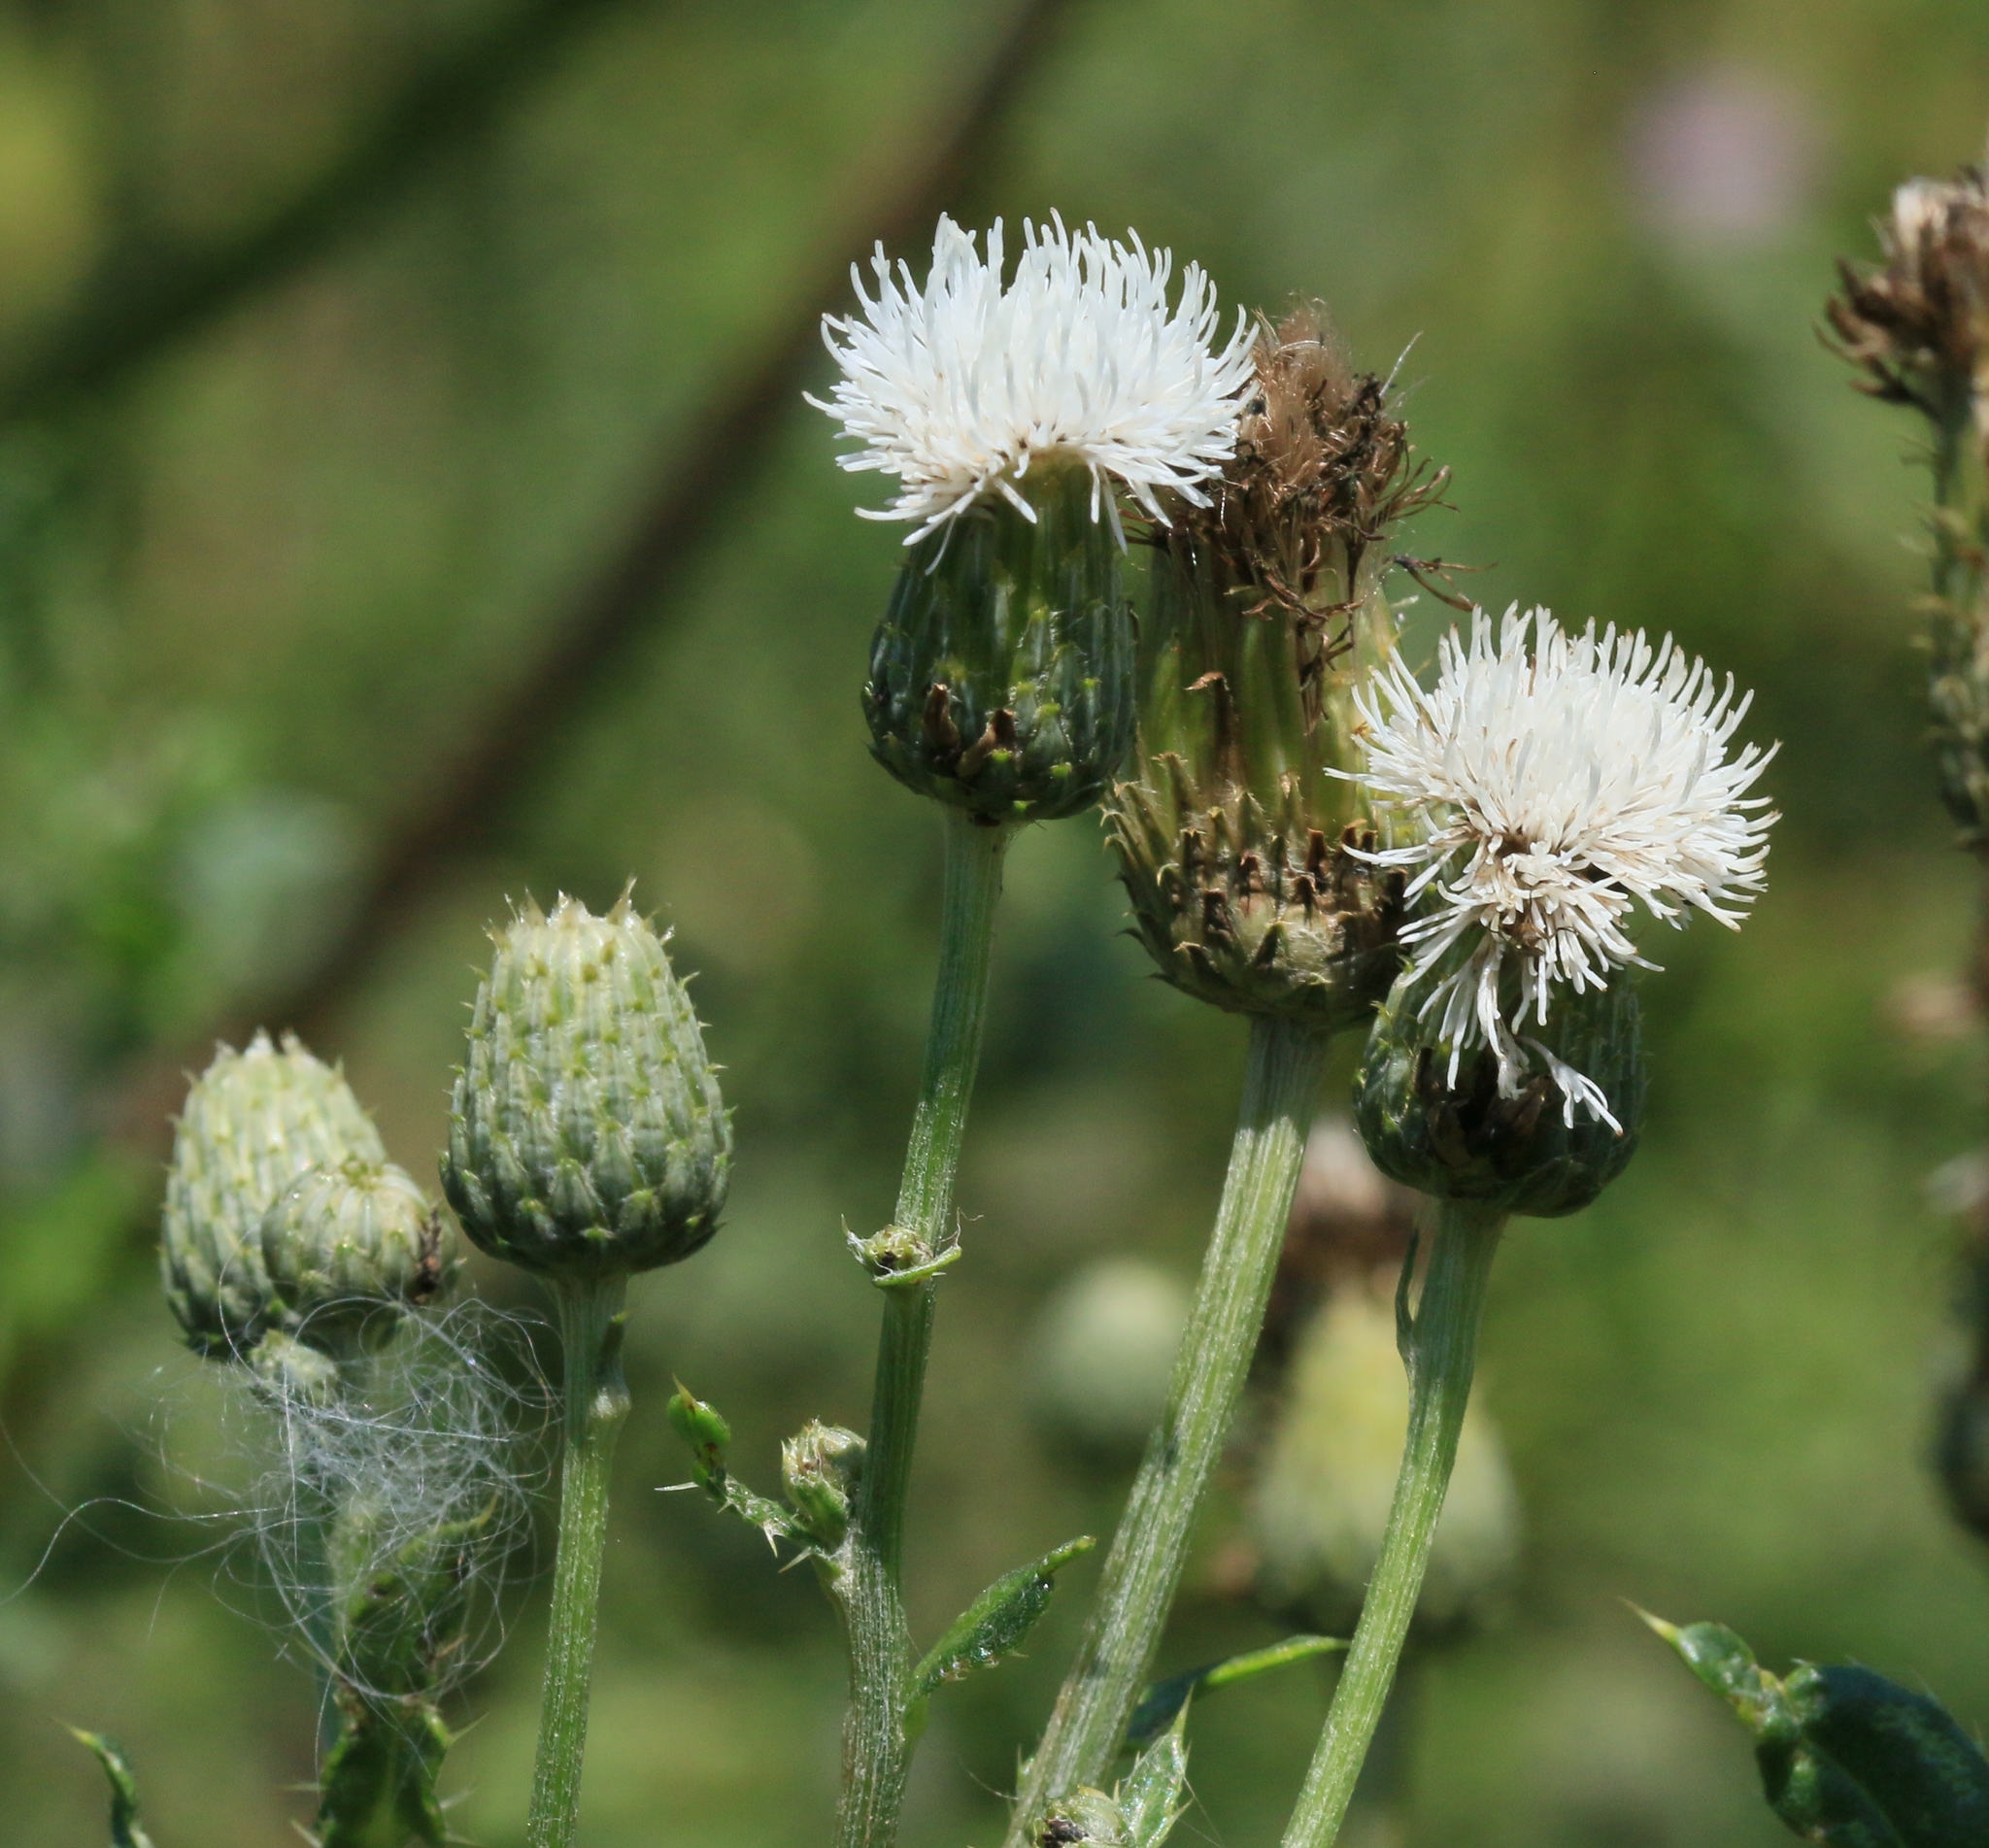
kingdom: Plantae
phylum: Tracheophyta
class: Magnoliopsida
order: Asterales
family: Asteraceae
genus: Cirsium
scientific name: Cirsium arvense
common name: Creeping thistle
